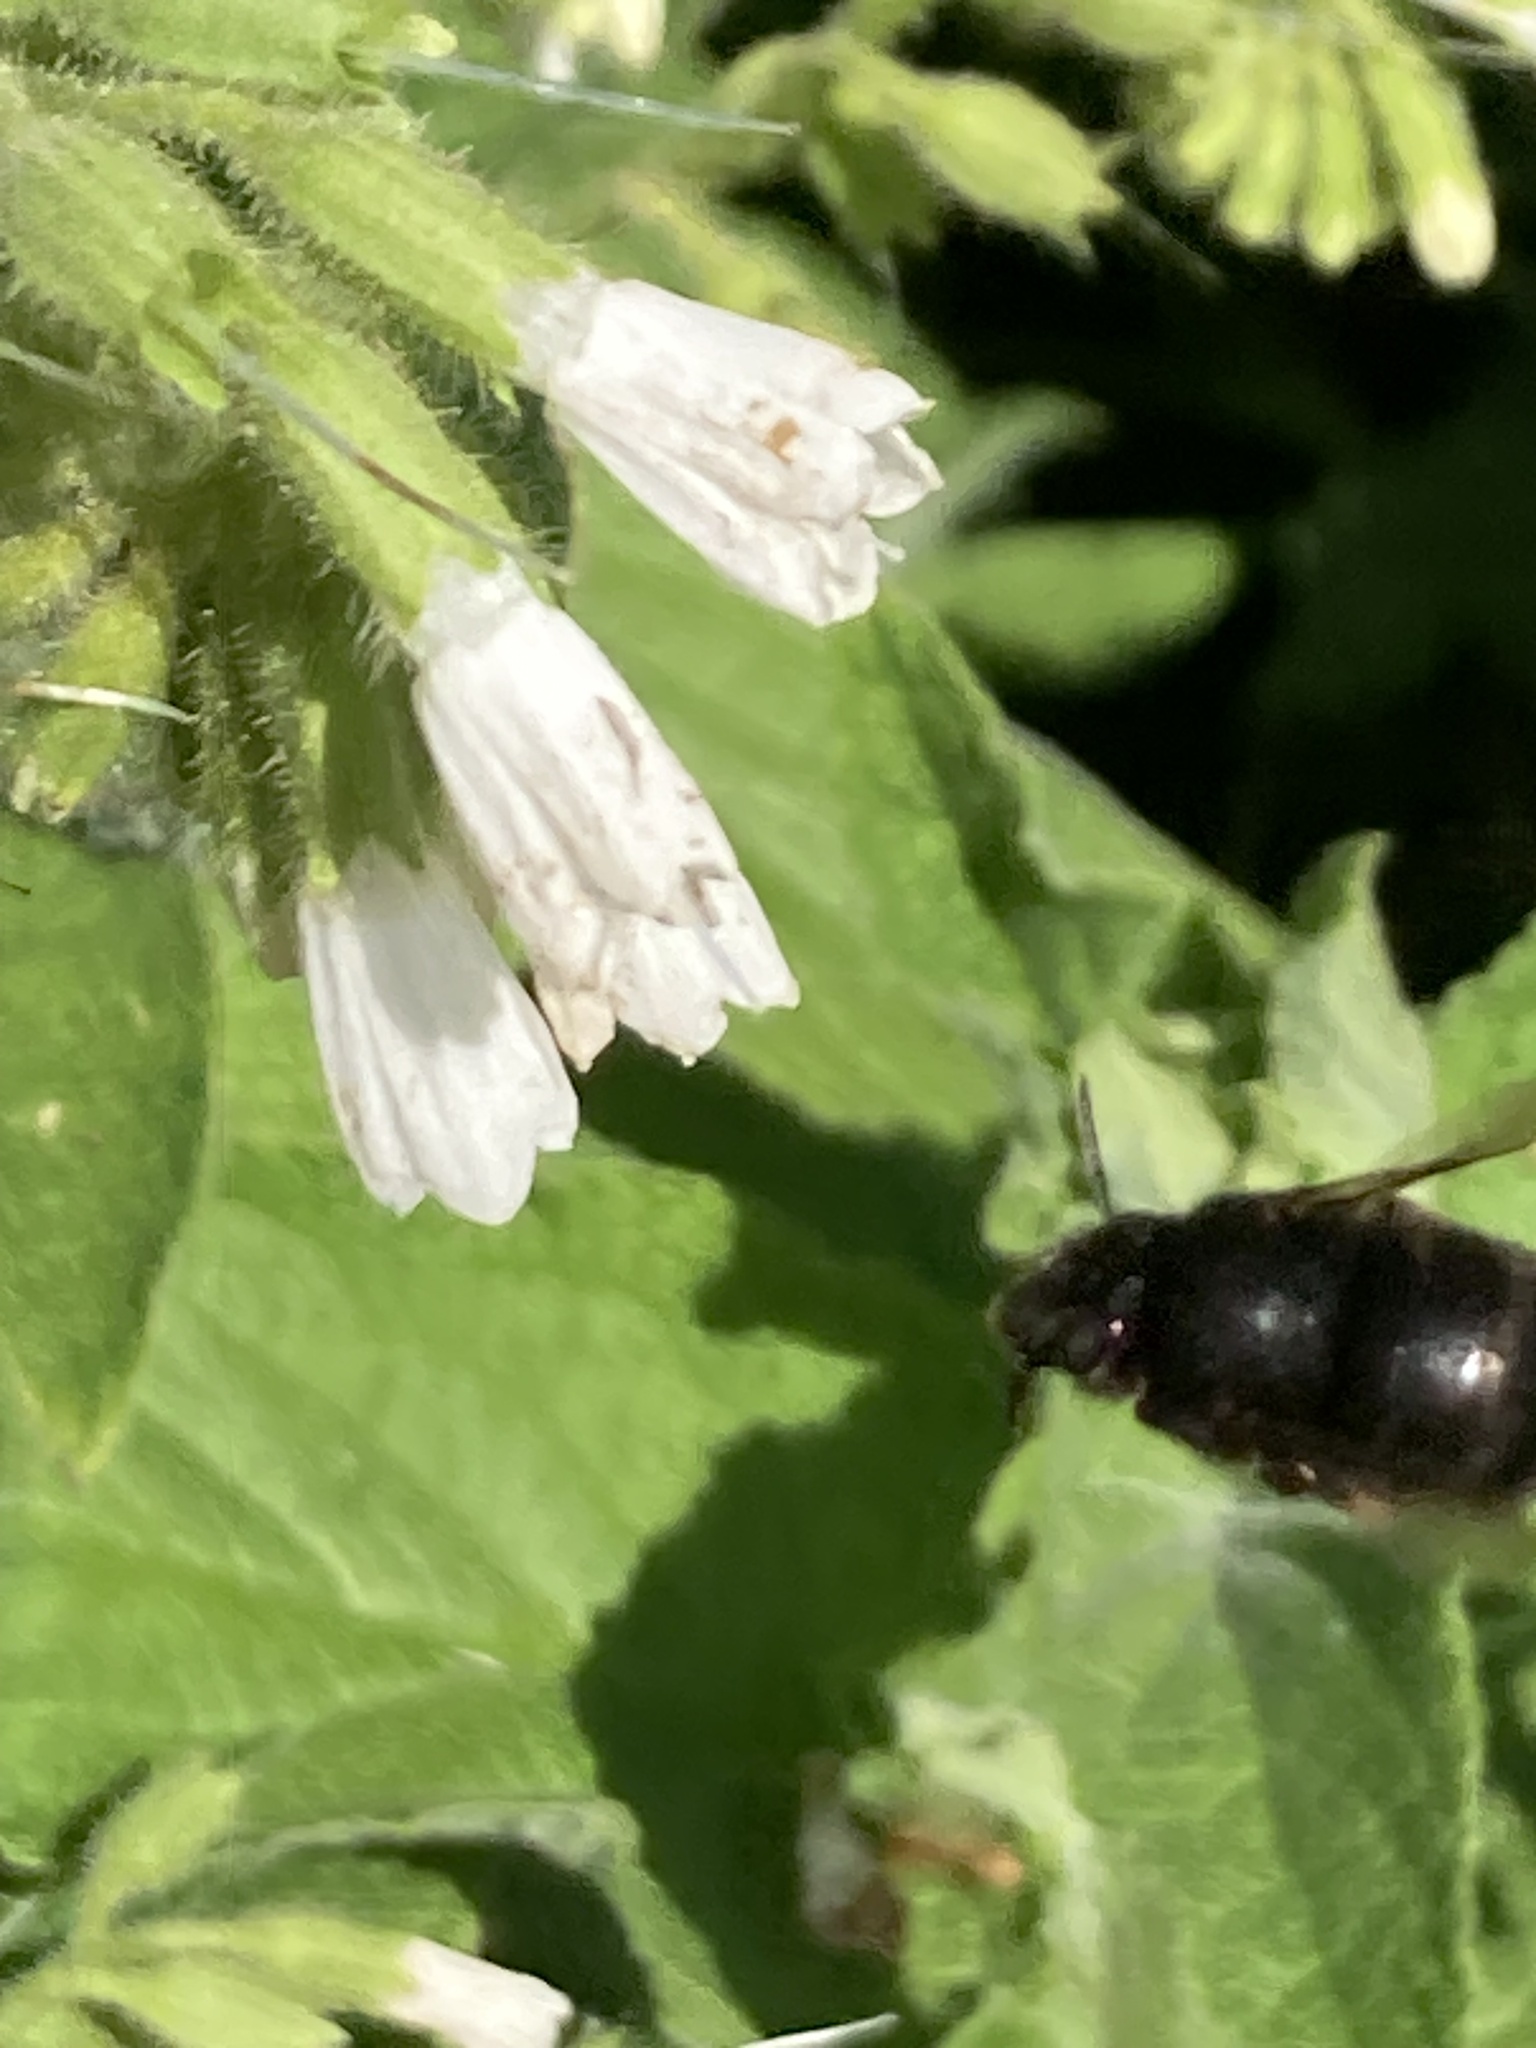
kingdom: Plantae
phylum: Tracheophyta
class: Magnoliopsida
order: Boraginales
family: Boraginaceae
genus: Symphytum
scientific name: Symphytum orientale
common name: White comfrey
